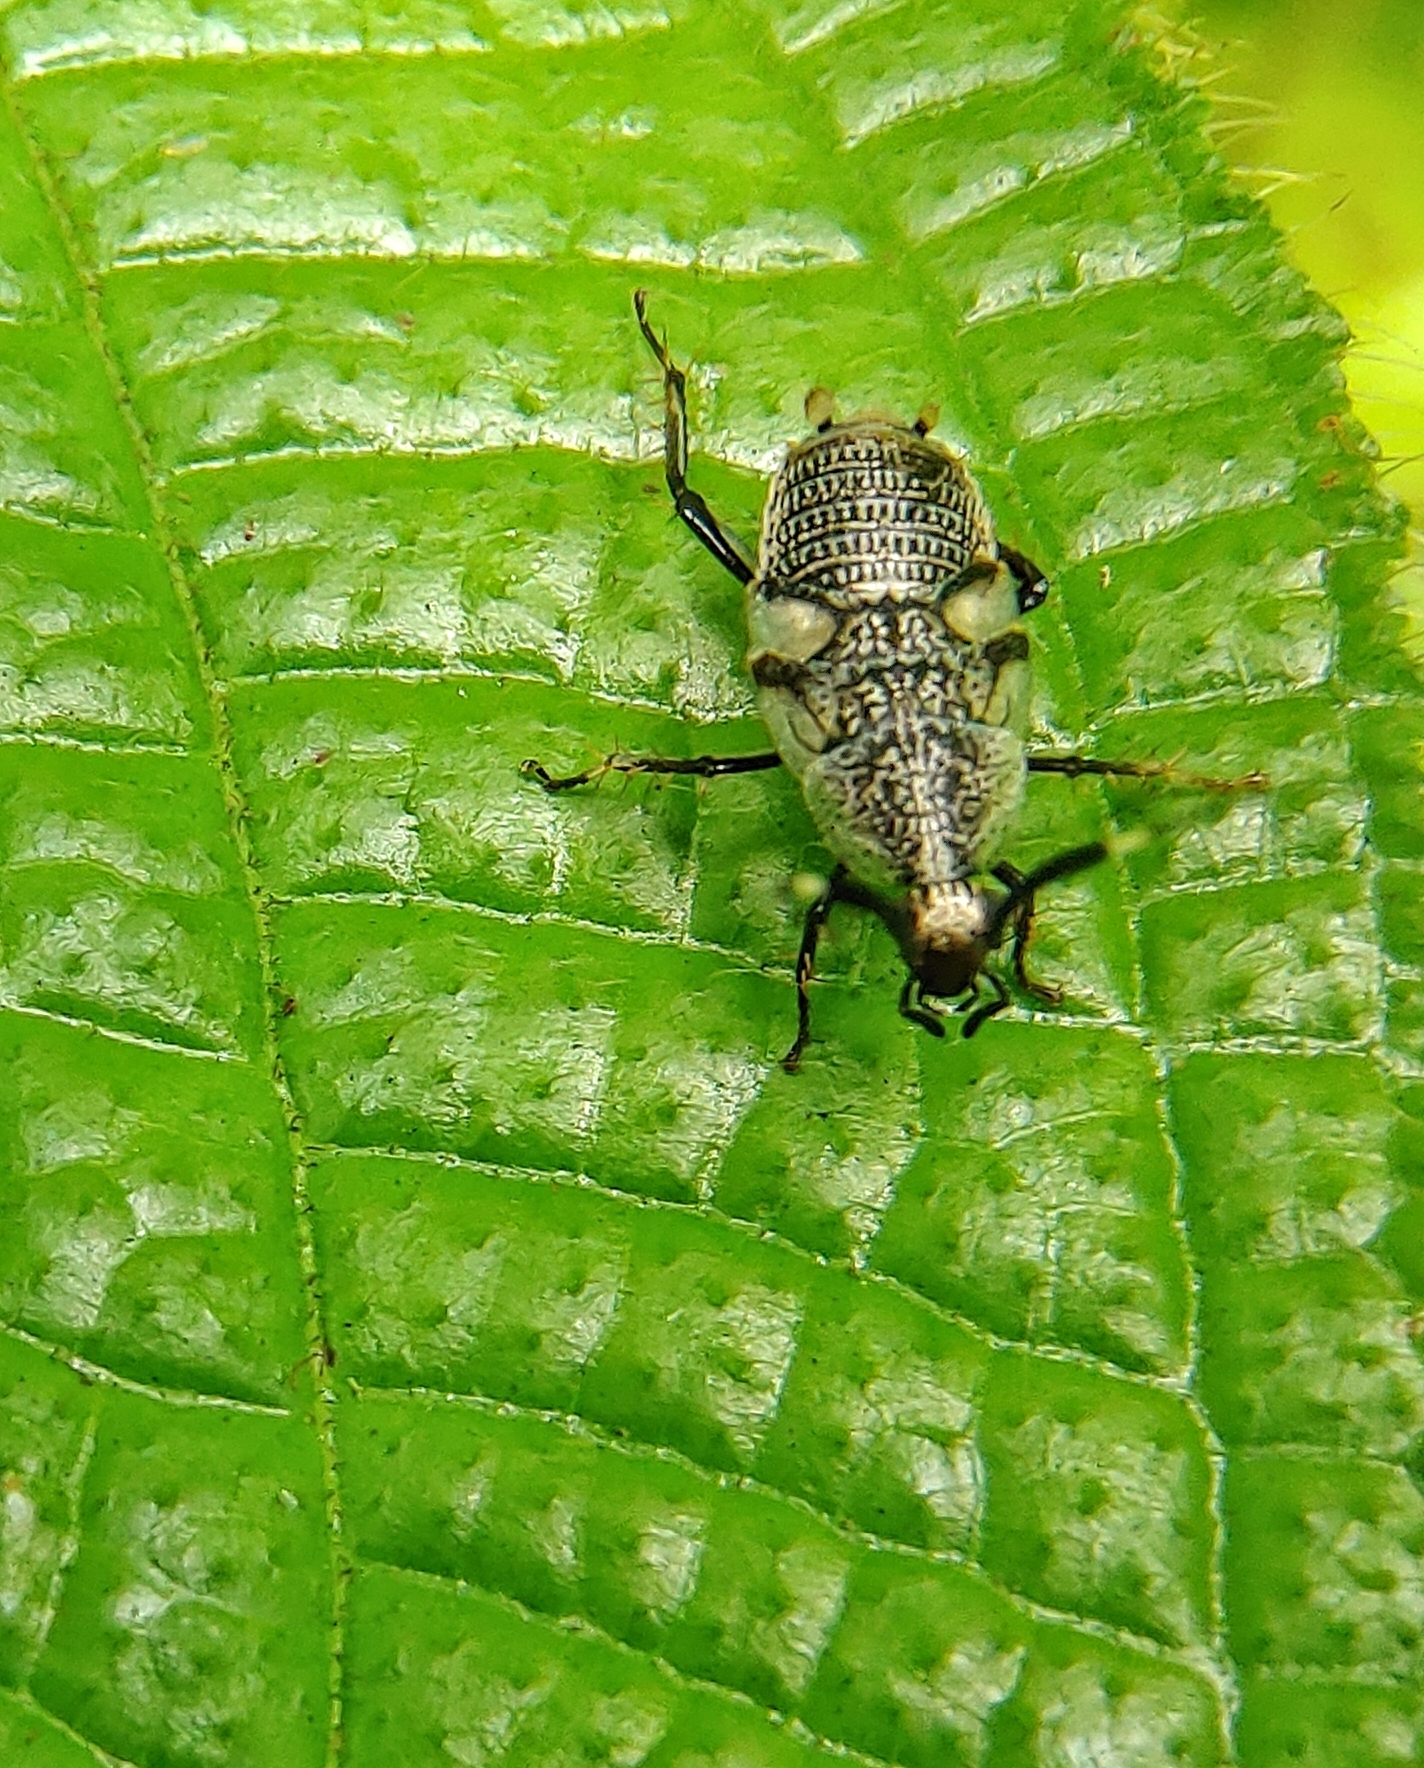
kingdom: Animalia
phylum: Arthropoda
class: Insecta
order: Blattodea
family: Ectobiidae
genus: Hemithyrsocera
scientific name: Hemithyrsocera histrio
